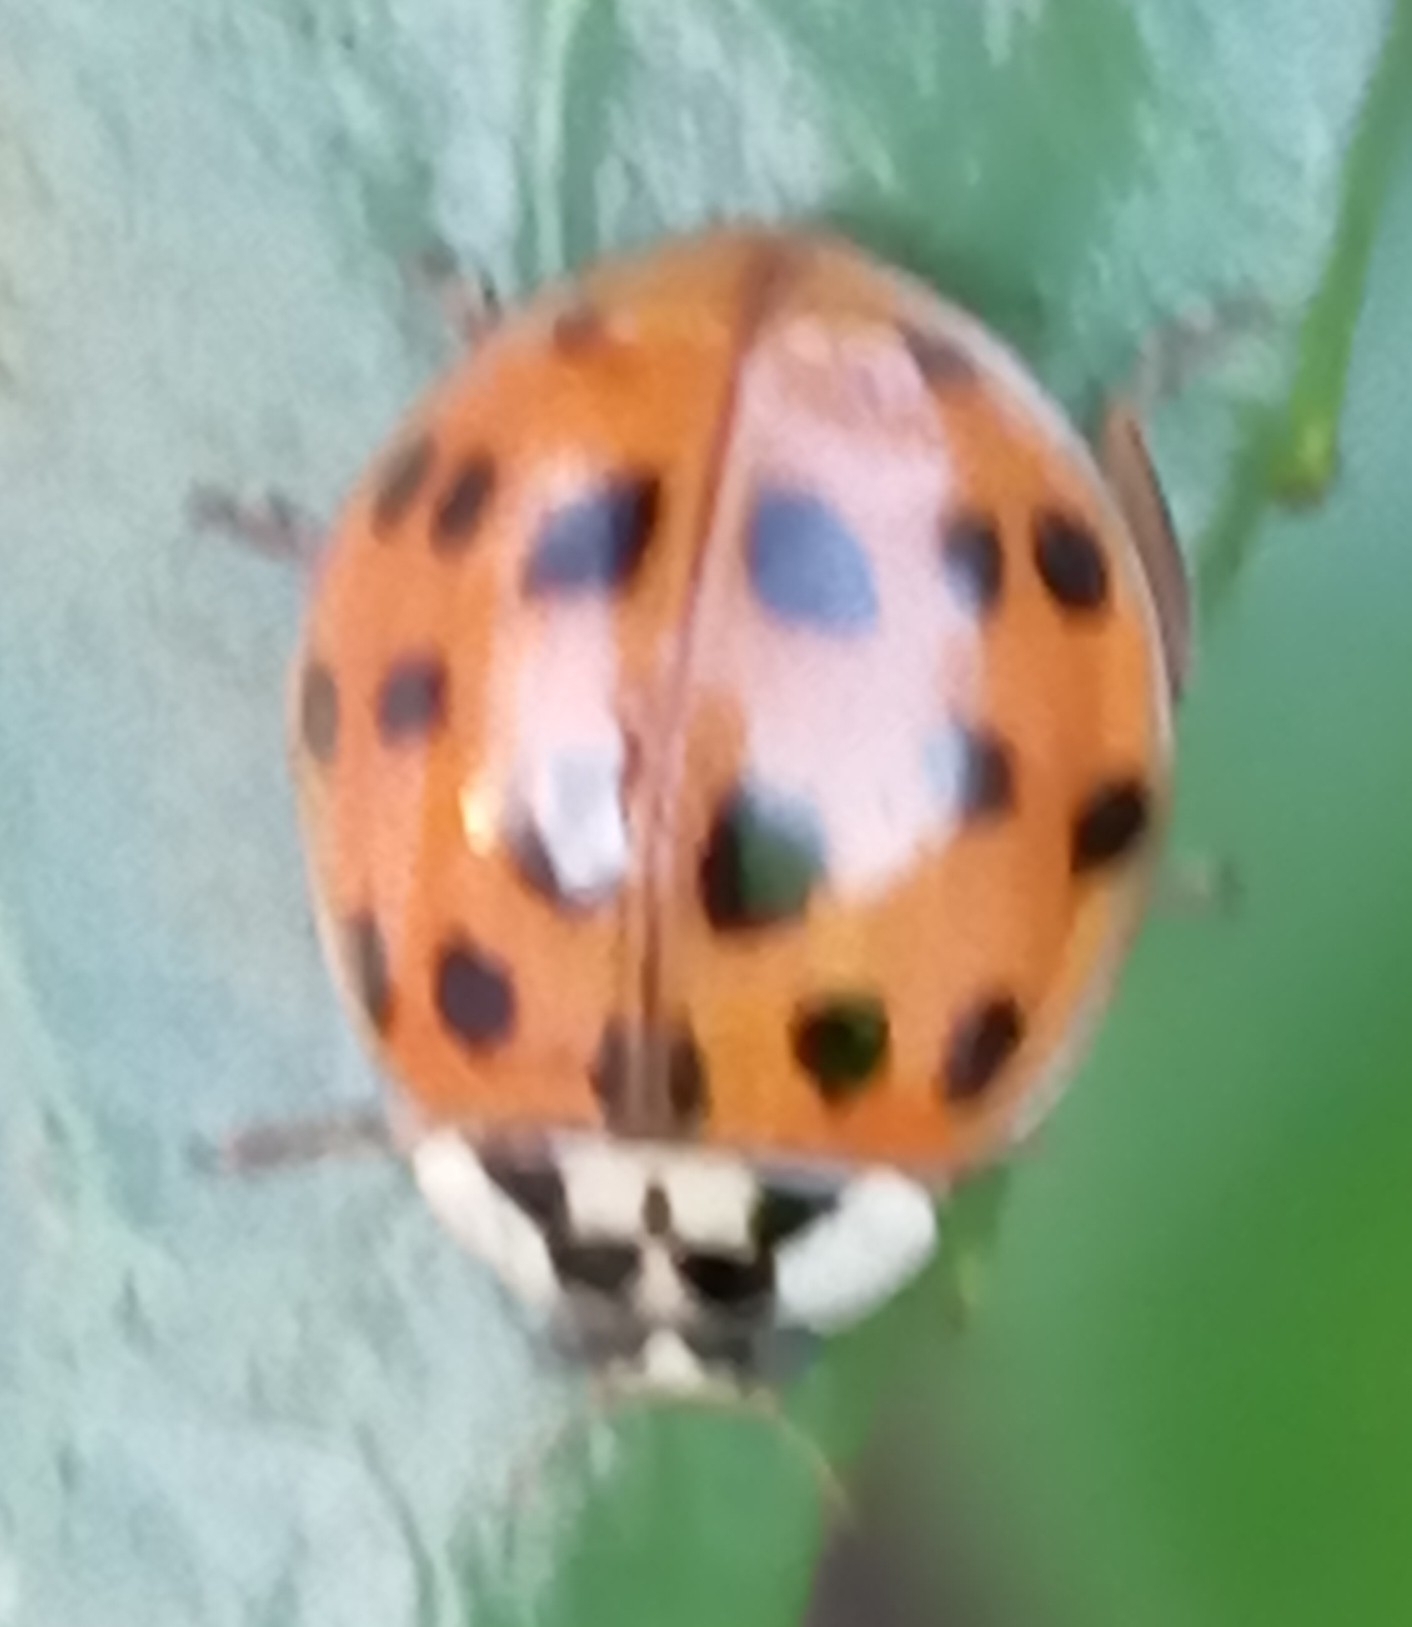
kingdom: Animalia
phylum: Arthropoda
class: Insecta
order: Coleoptera
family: Coccinellidae
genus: Harmonia
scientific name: Harmonia axyridis
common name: Harlequin ladybird
